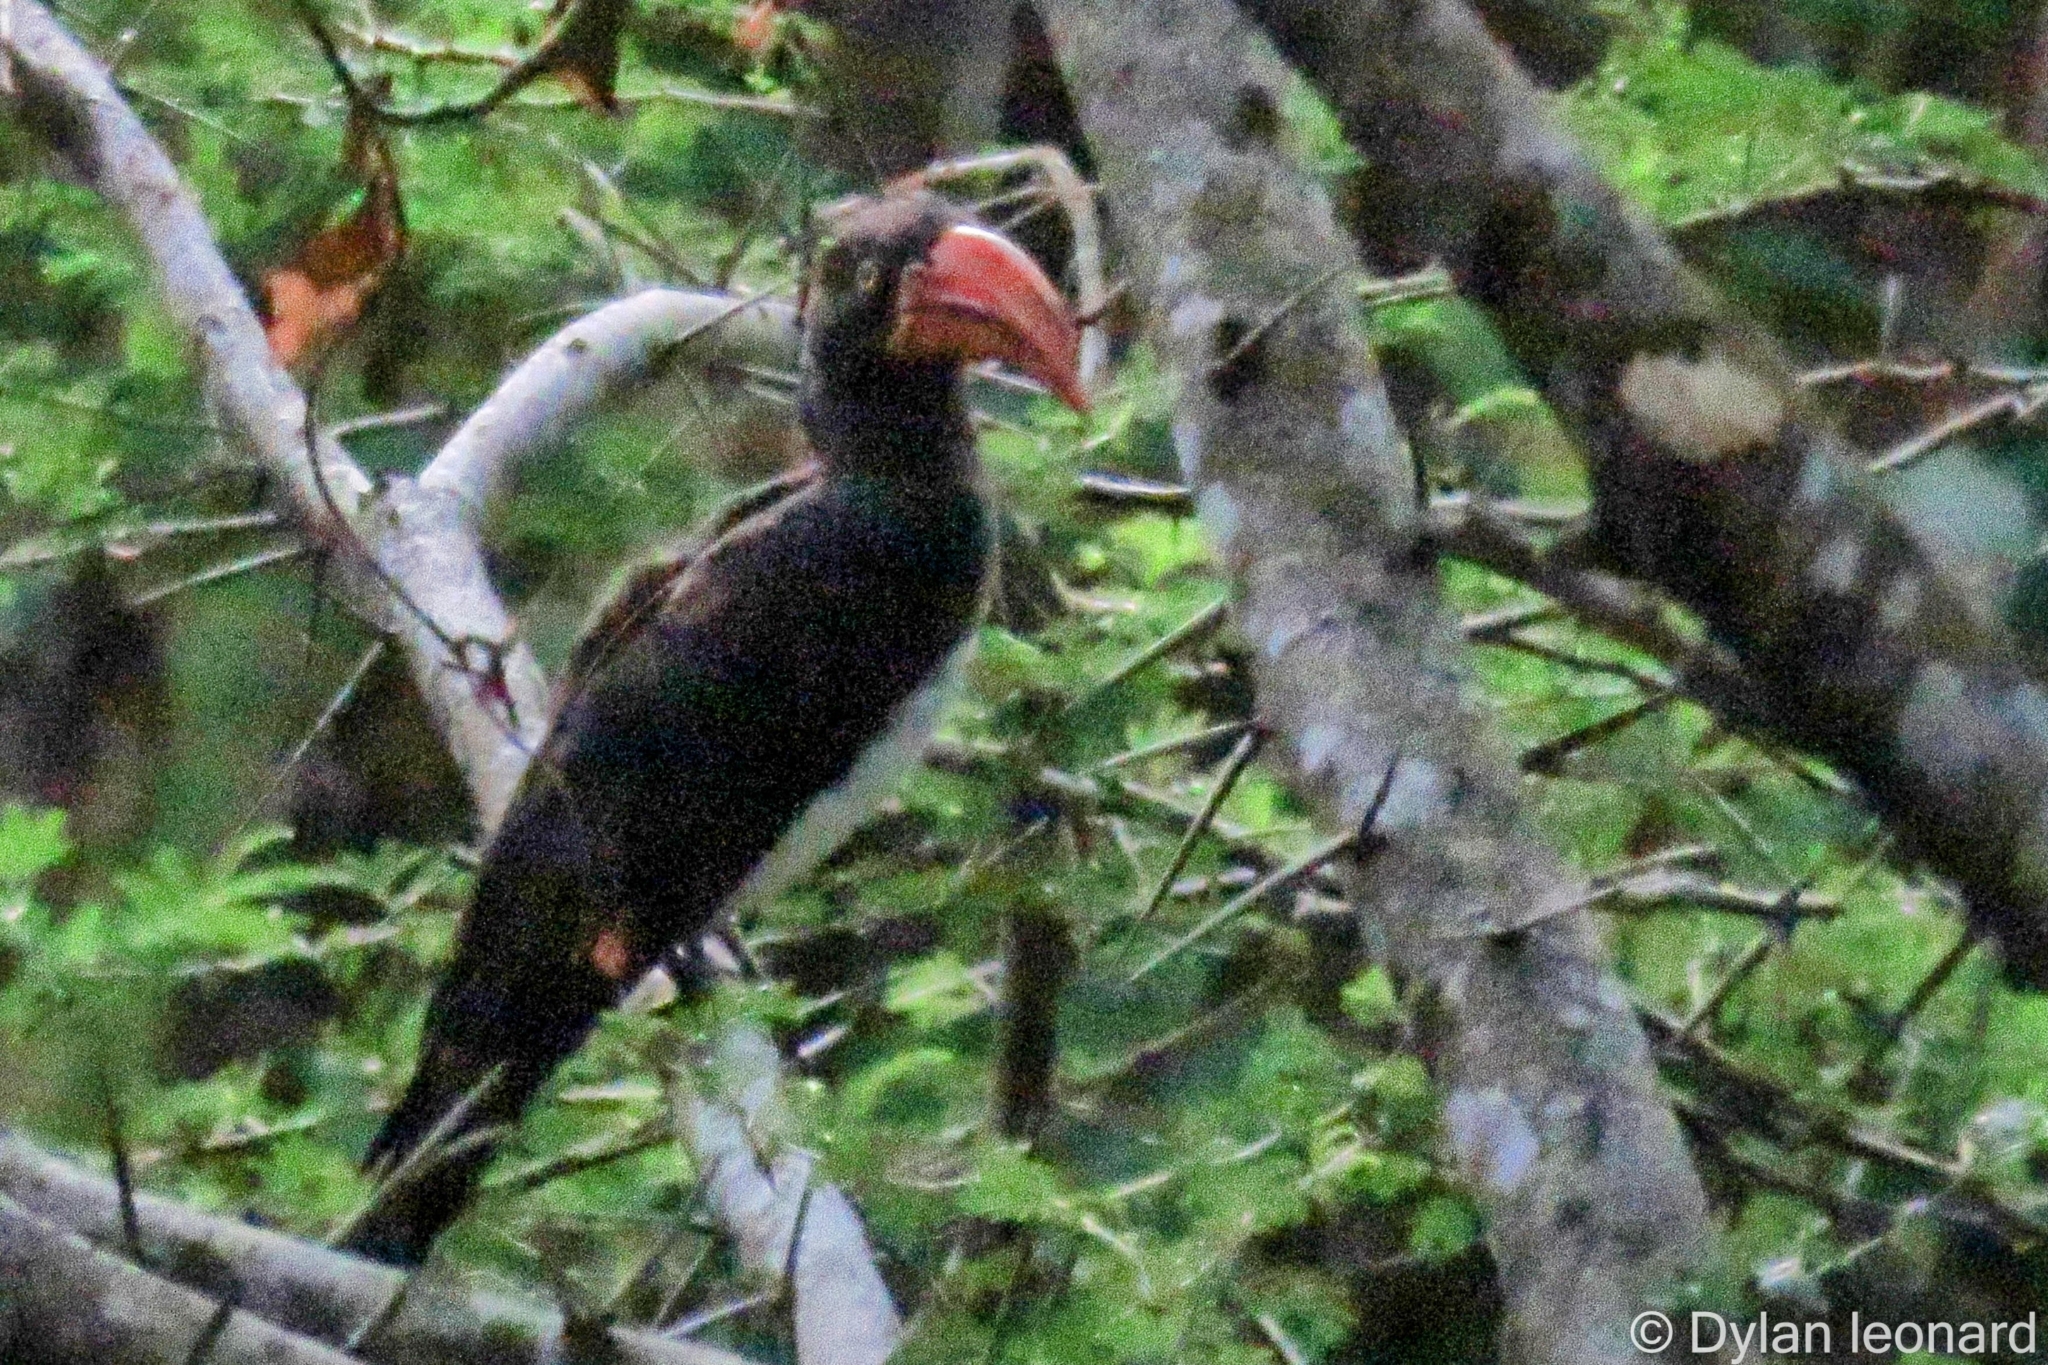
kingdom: Animalia
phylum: Chordata
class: Aves
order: Bucerotiformes
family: Bucerotidae
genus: Lophoceros
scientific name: Lophoceros alboterminatus
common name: Crowned hornbill
